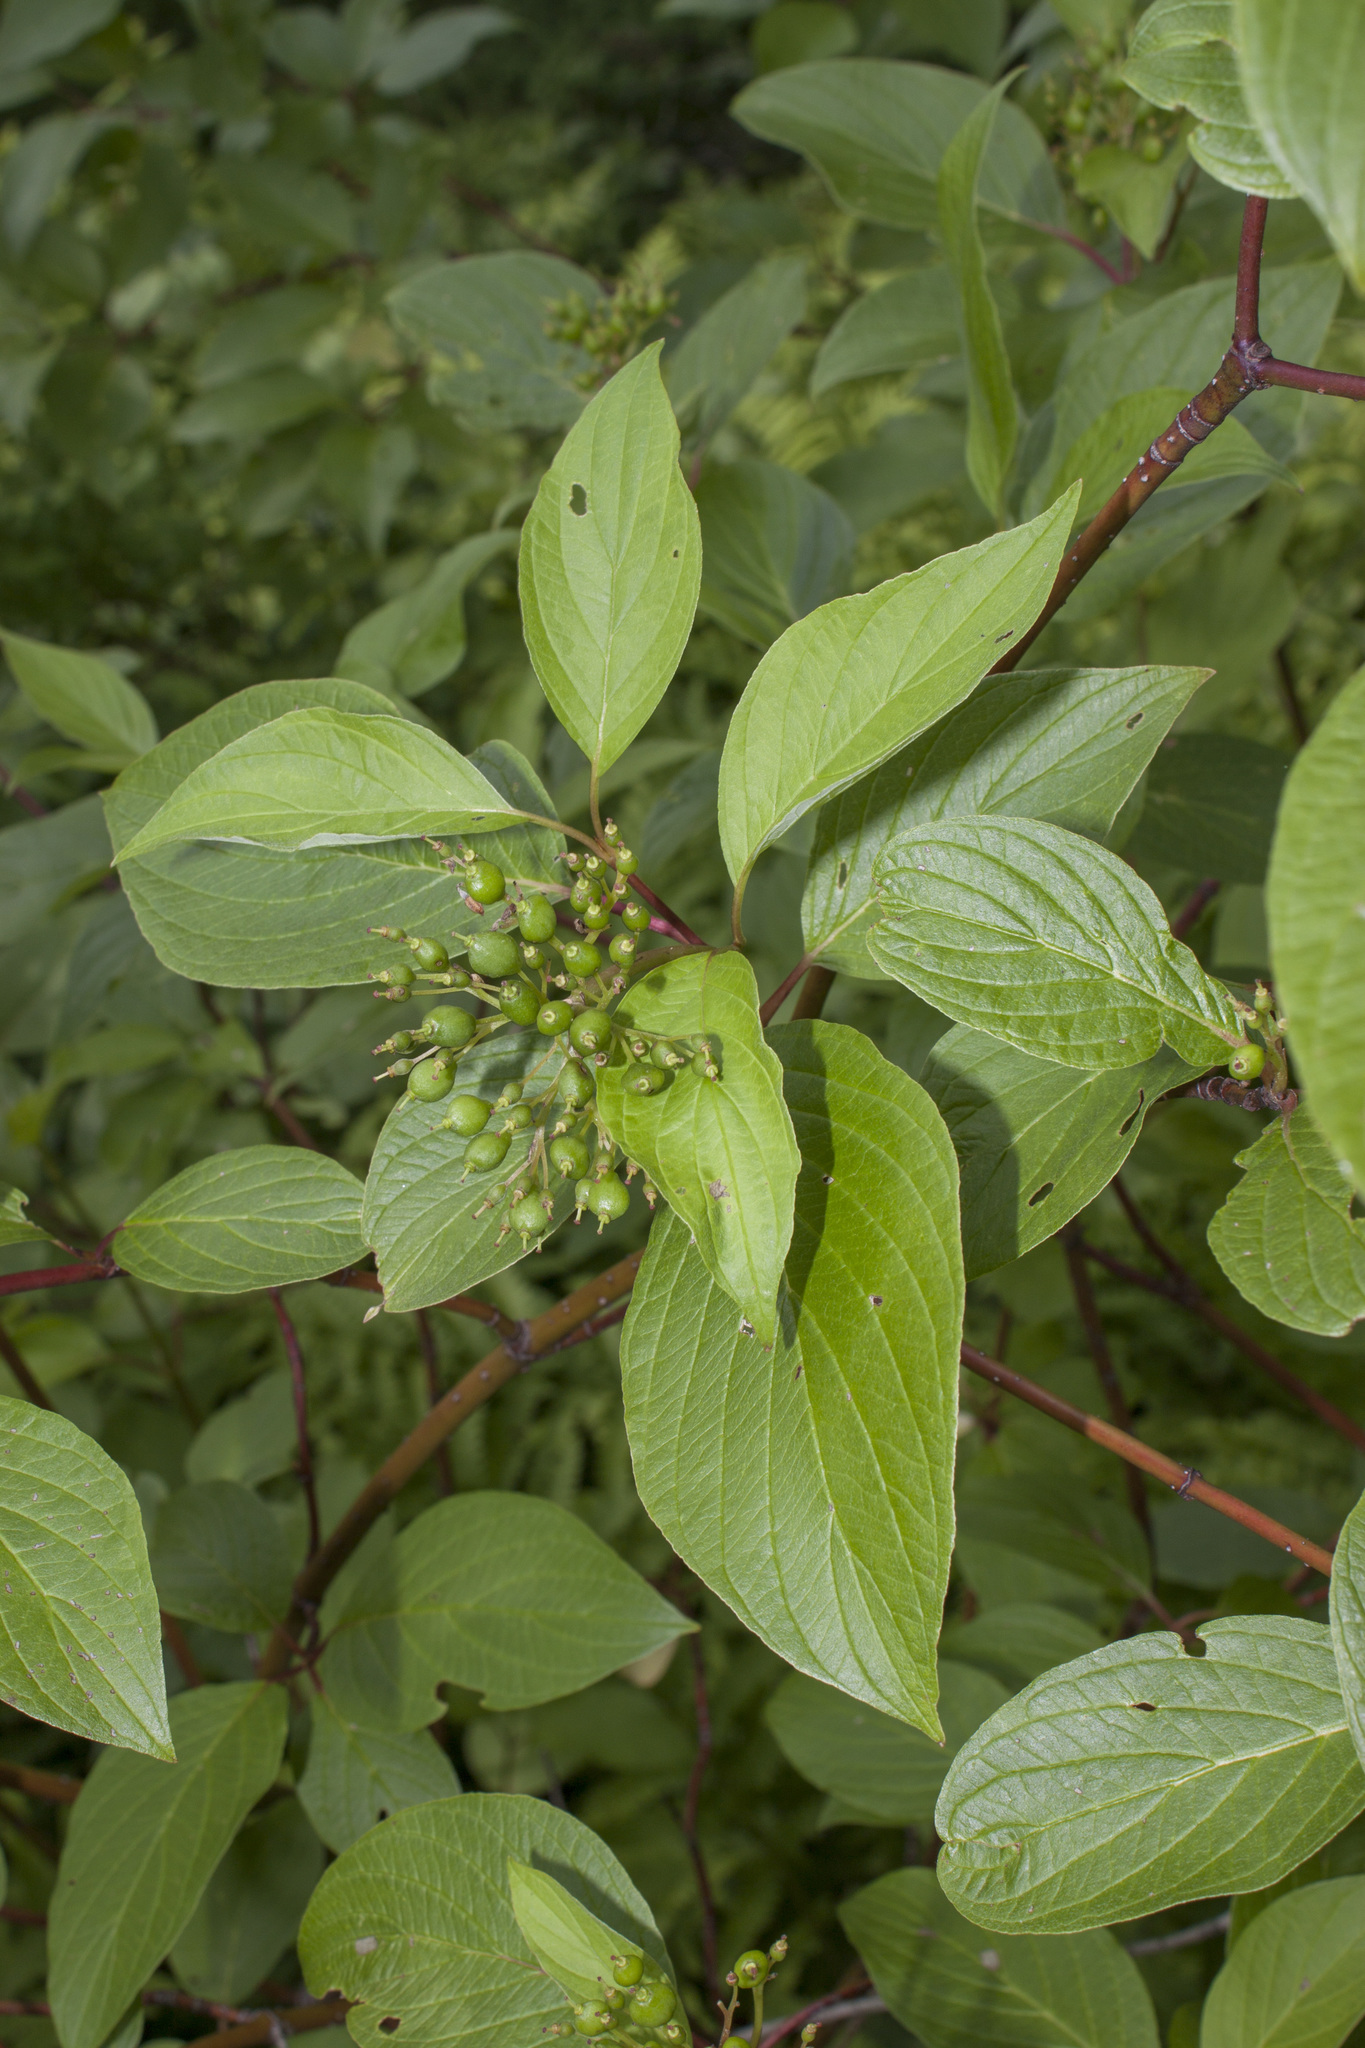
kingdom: Plantae
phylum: Tracheophyta
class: Magnoliopsida
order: Cornales
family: Cornaceae
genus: Cornus
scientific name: Cornus sericea
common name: Red-osier dogwood
